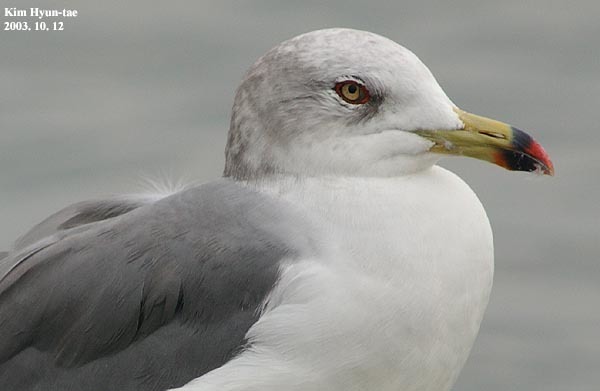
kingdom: Animalia
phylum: Chordata
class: Aves
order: Charadriiformes
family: Laridae
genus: Larus
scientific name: Larus crassirostris
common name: Black-tailed gull
